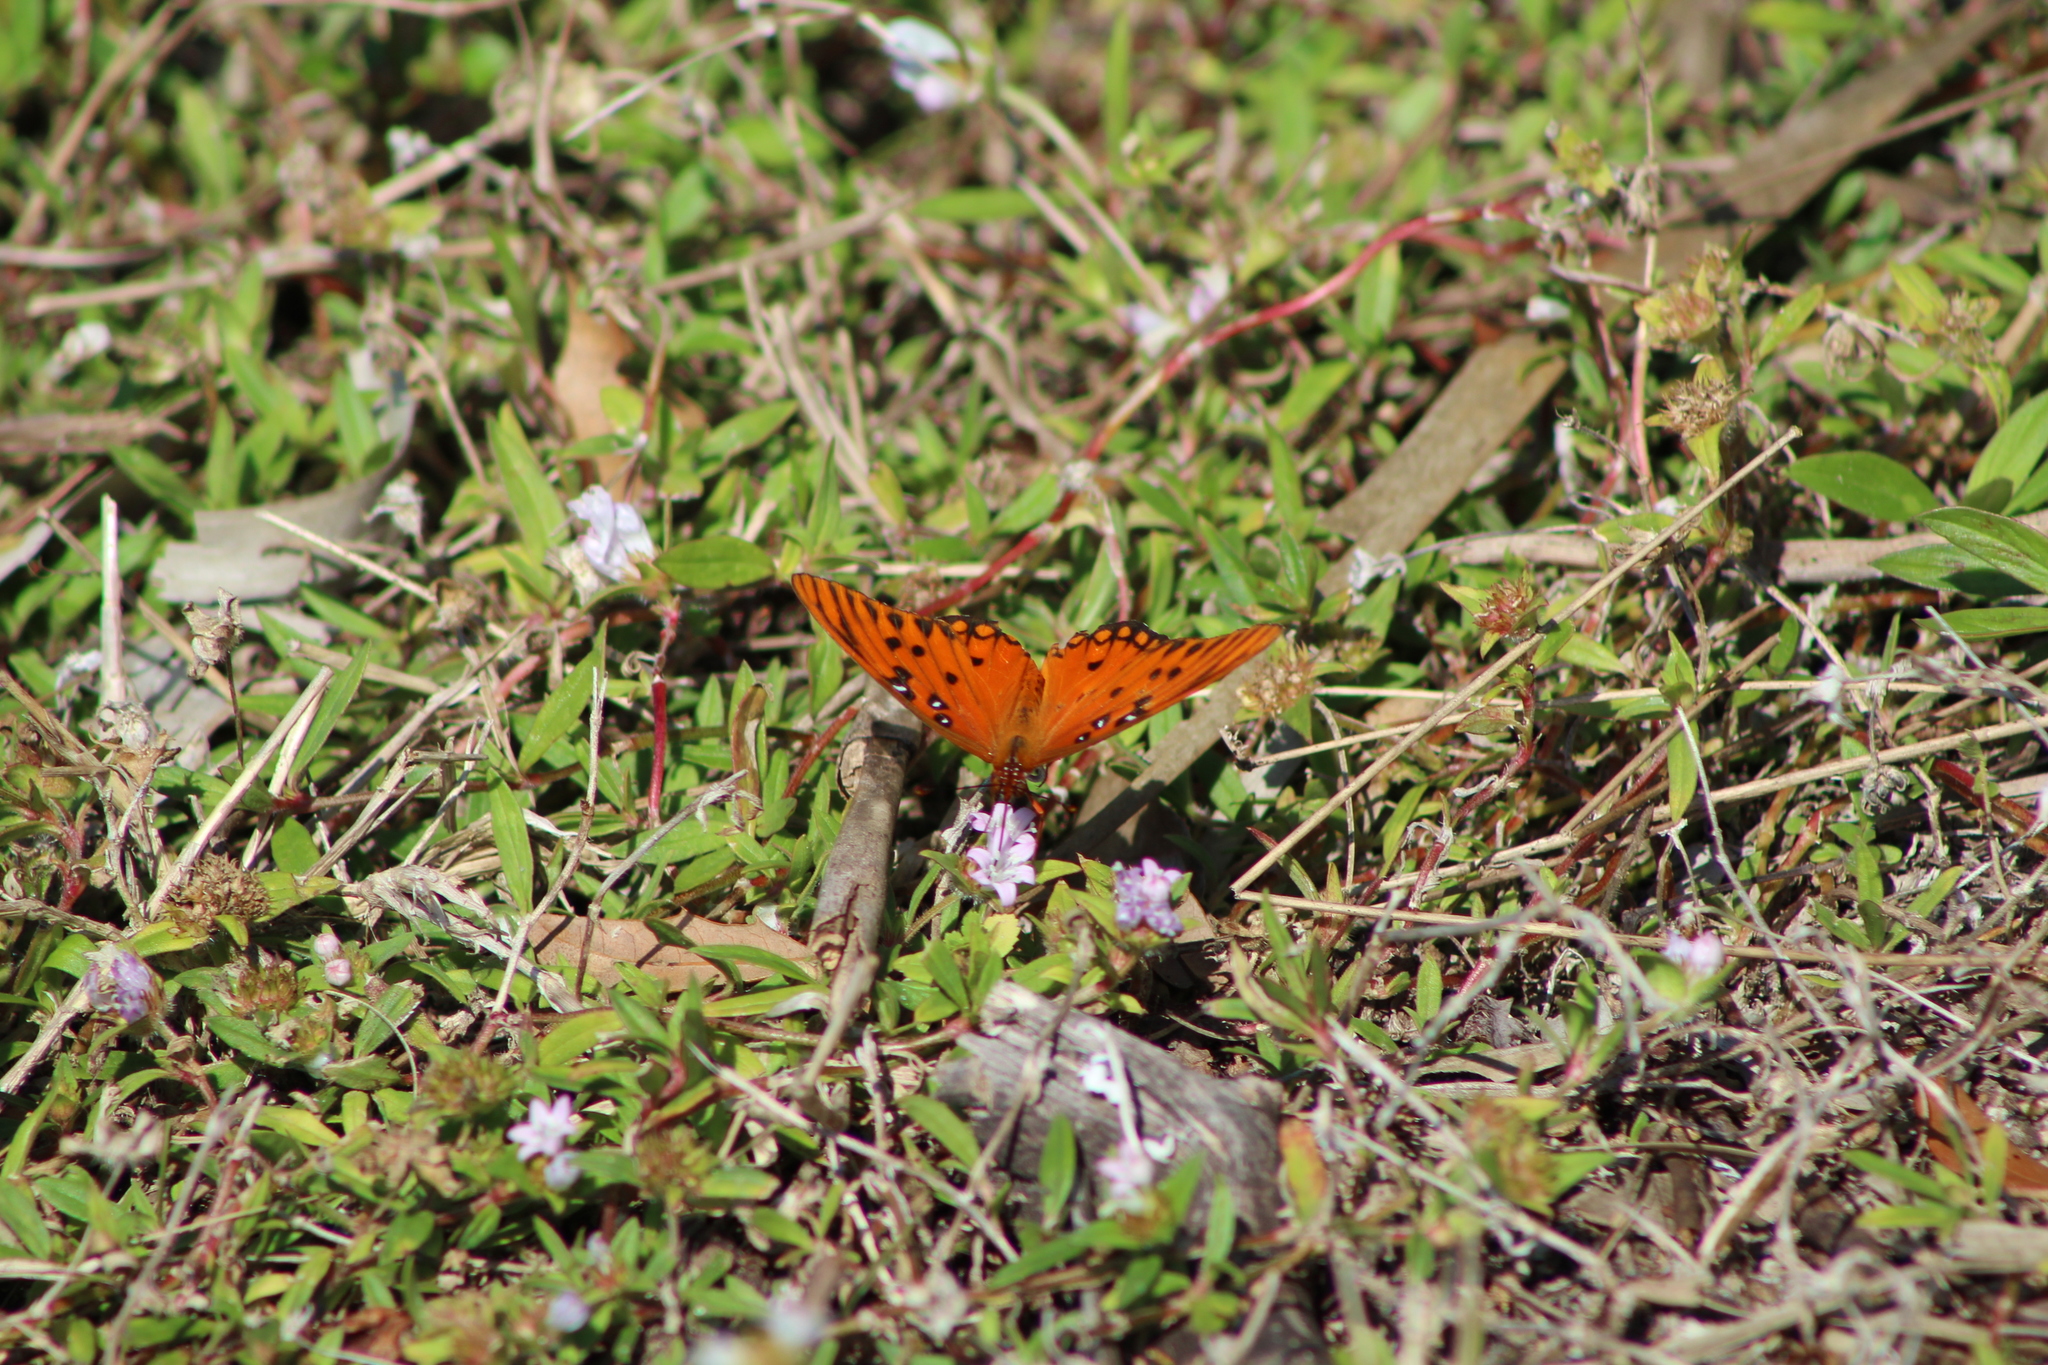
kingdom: Animalia
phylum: Arthropoda
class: Insecta
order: Lepidoptera
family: Nymphalidae
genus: Dione
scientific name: Dione vanillae
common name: Gulf fritillary
